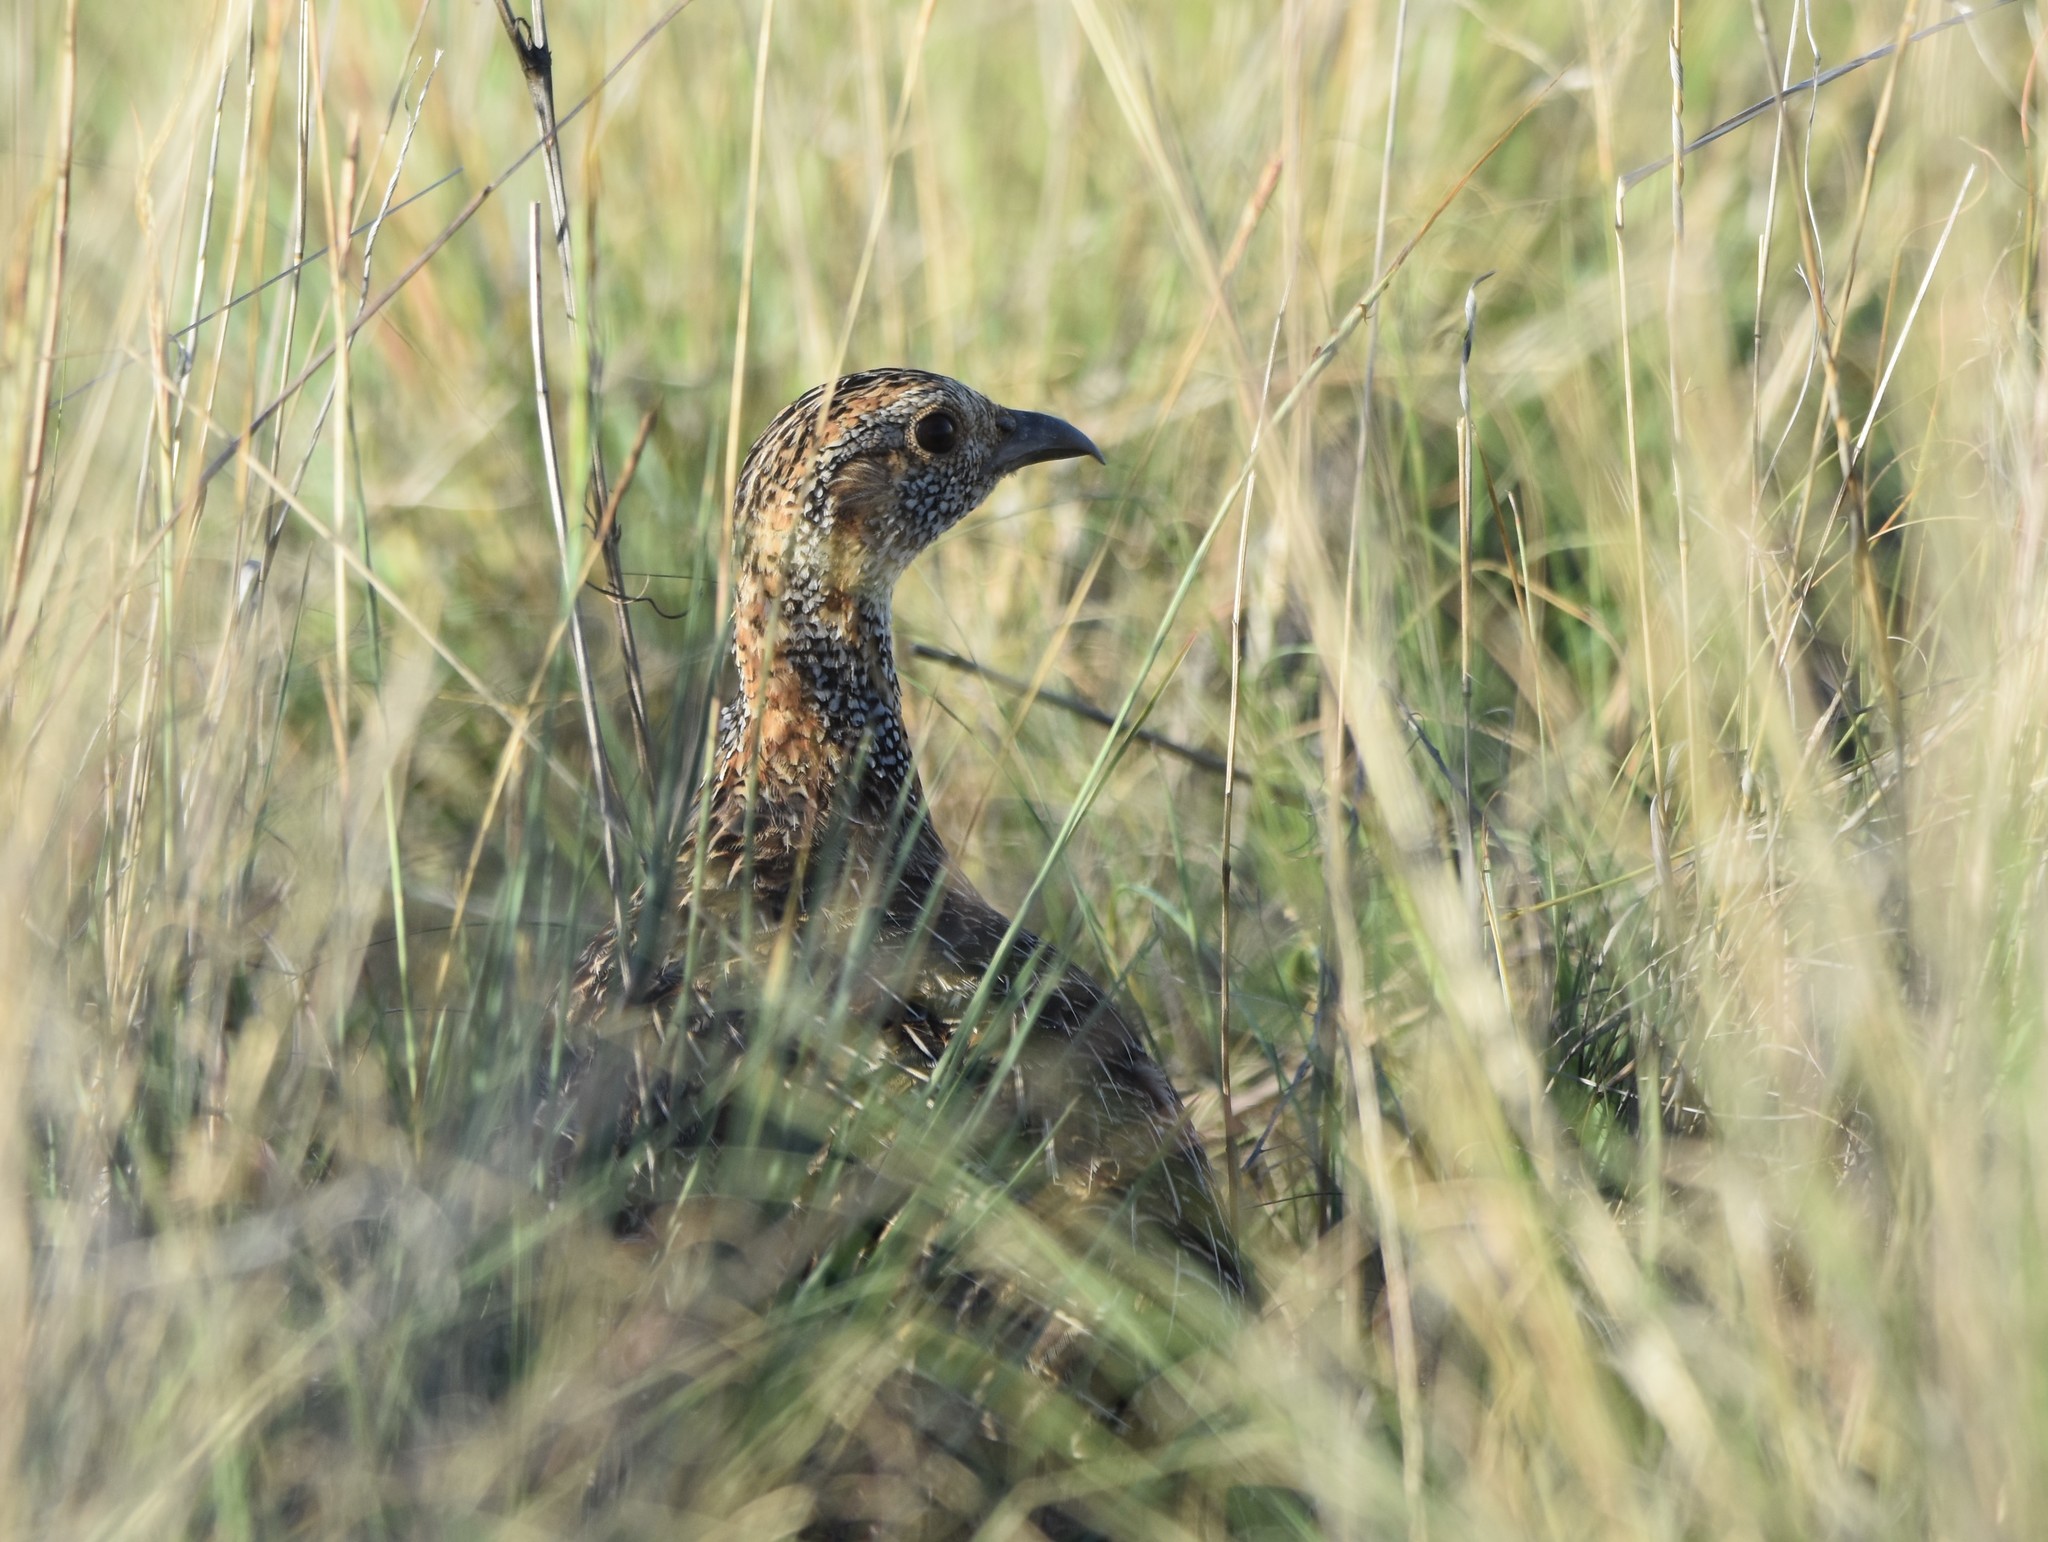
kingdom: Animalia
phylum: Chordata
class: Aves
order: Galliformes
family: Phasianidae
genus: Scleroptila
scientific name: Scleroptila afra
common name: Grey-winged francolin
